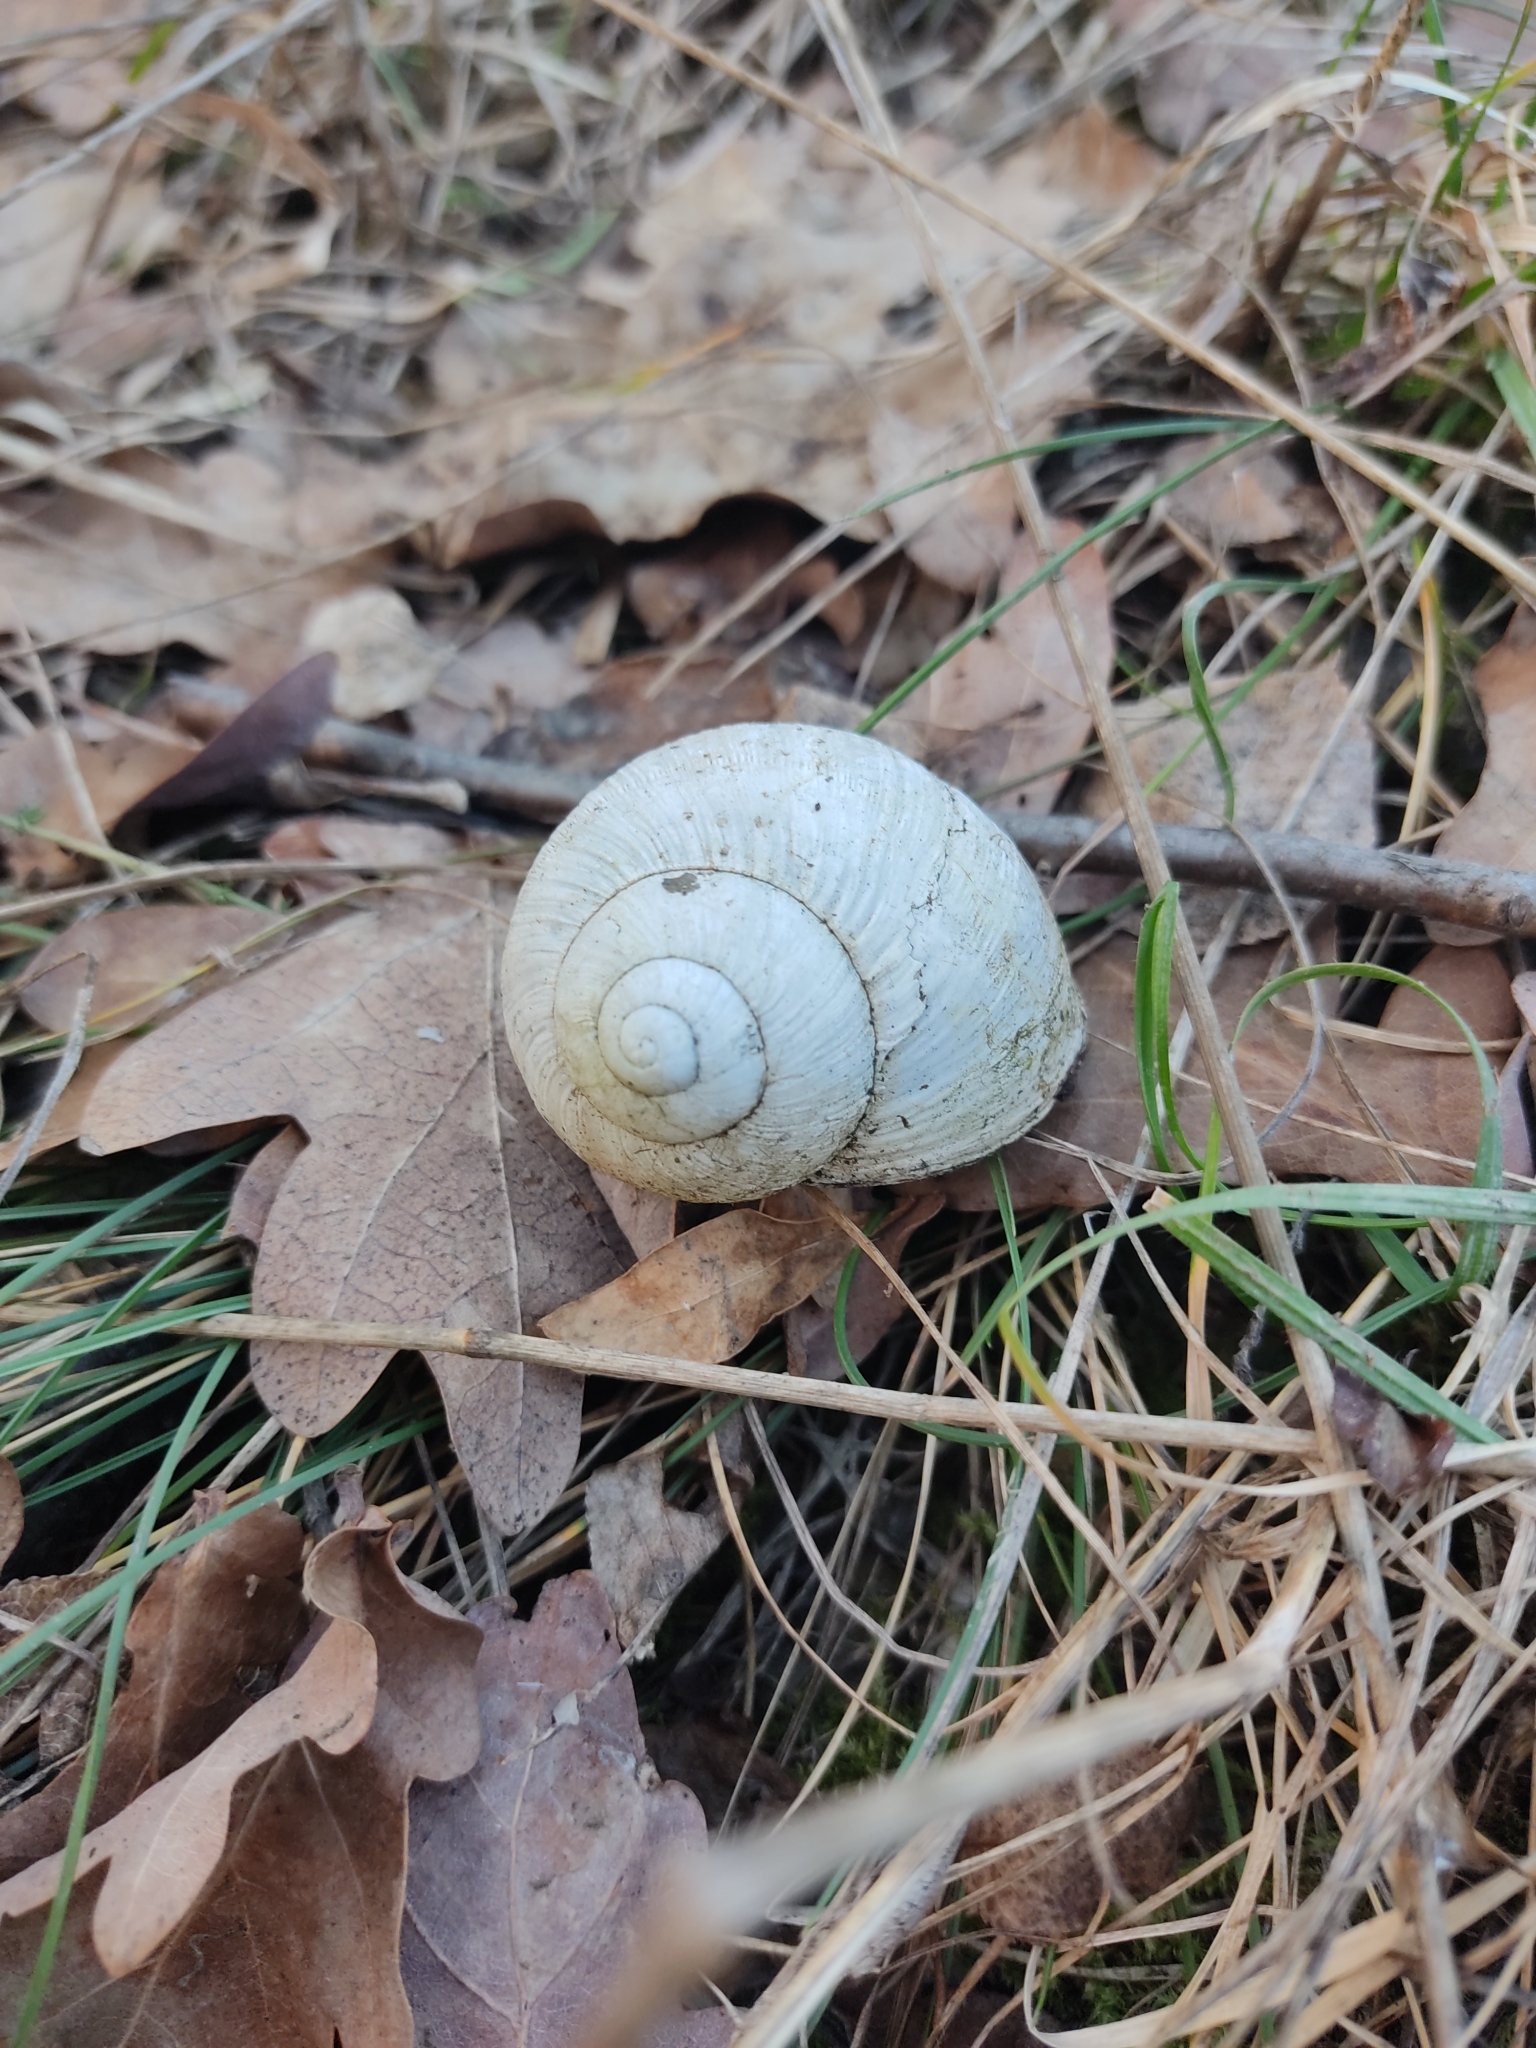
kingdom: Animalia
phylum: Mollusca
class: Gastropoda
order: Stylommatophora
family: Helicidae
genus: Helix
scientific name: Helix pomatia
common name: Roman snail
